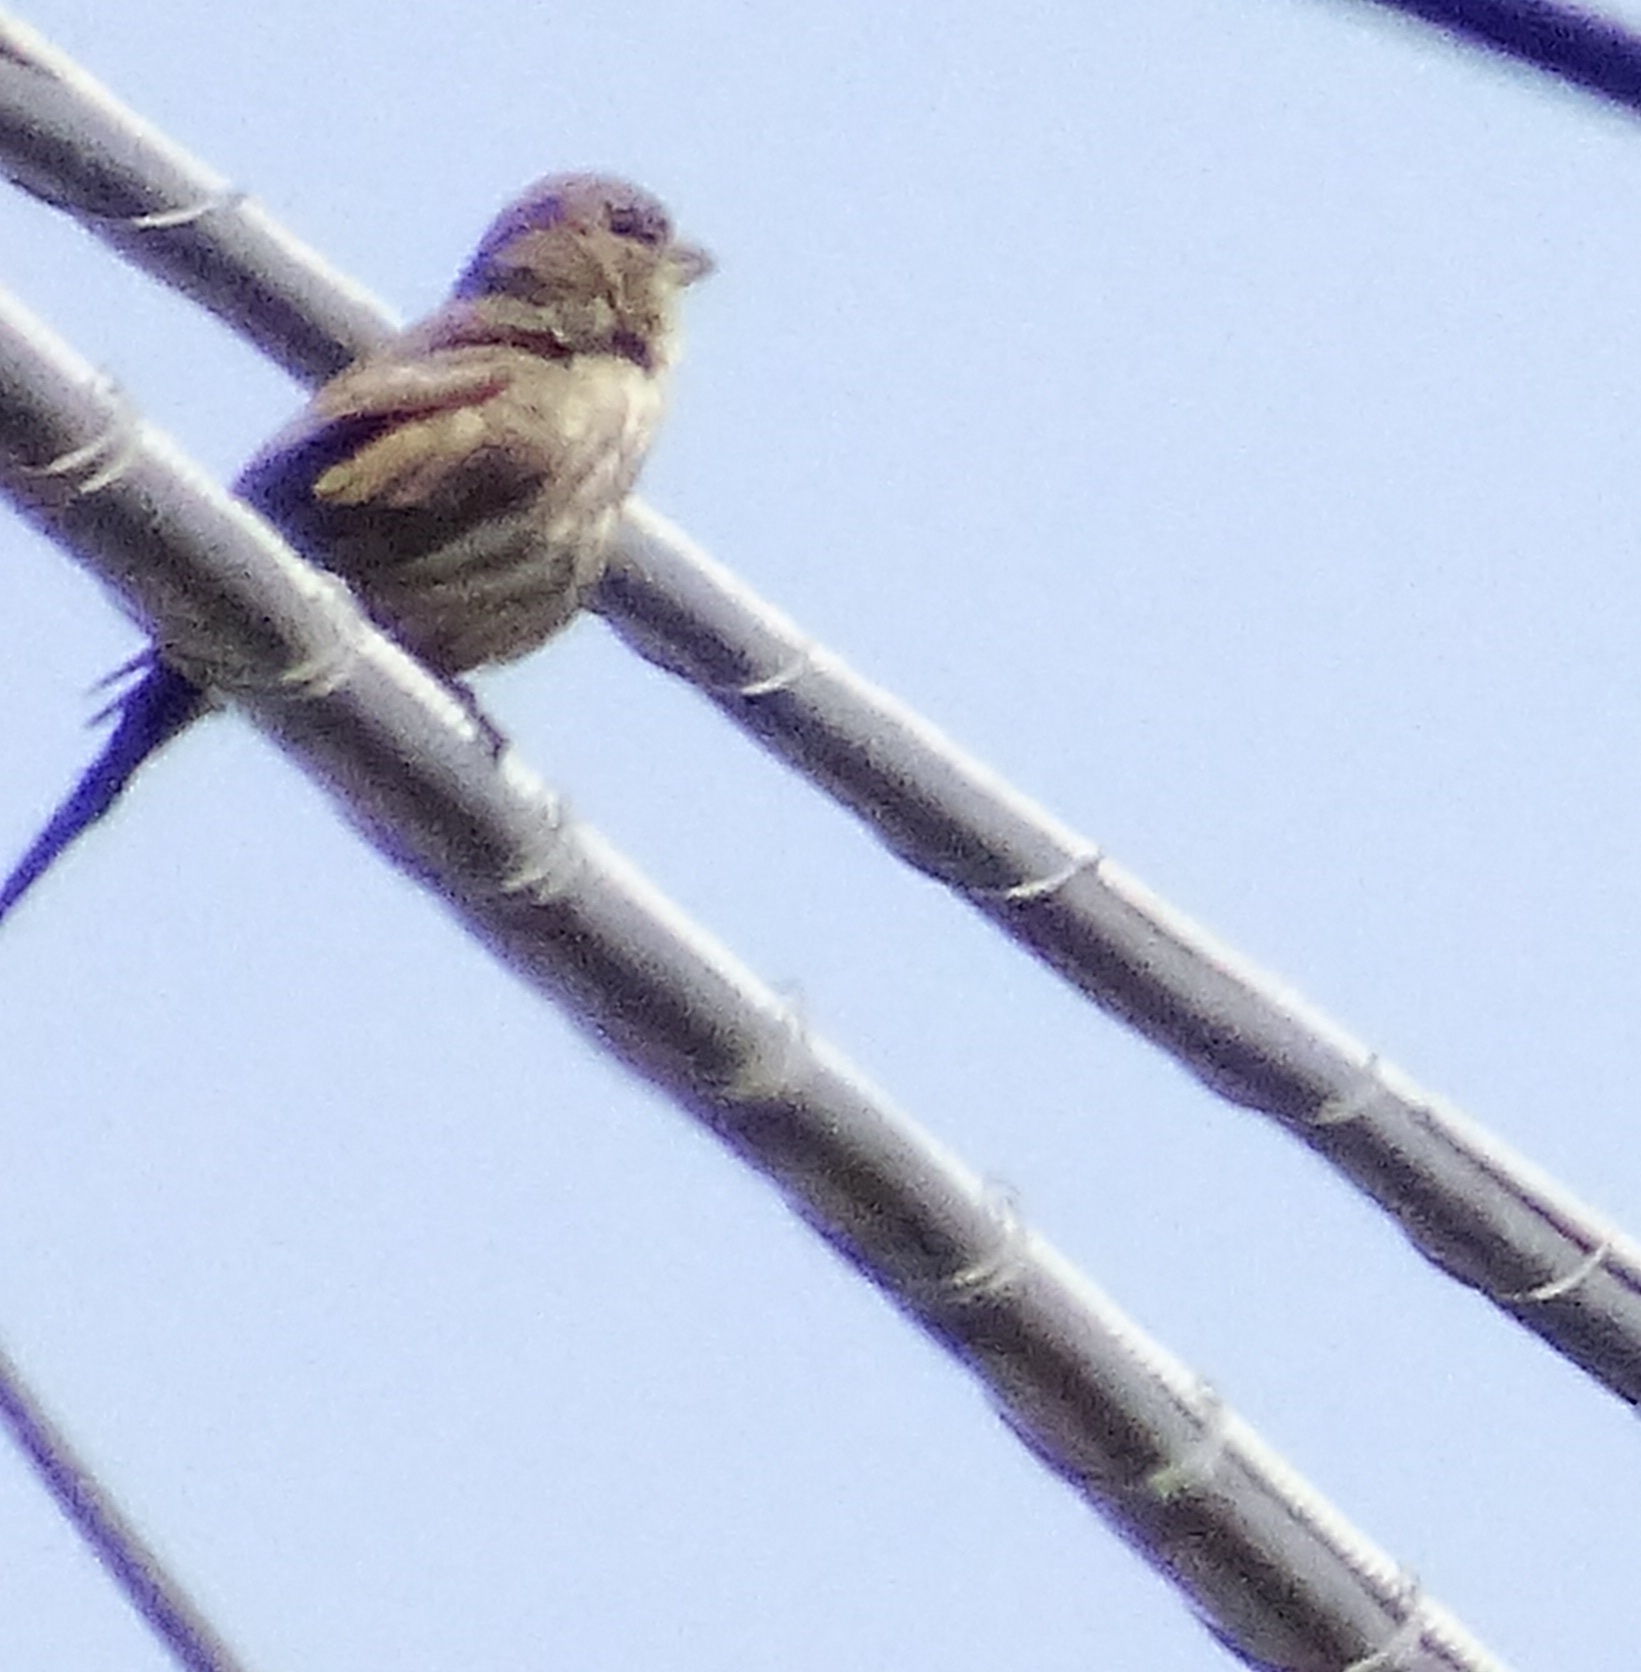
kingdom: Animalia
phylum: Chordata
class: Aves
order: Passeriformes
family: Fringillidae
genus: Haemorhous
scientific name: Haemorhous mexicanus
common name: House finch
